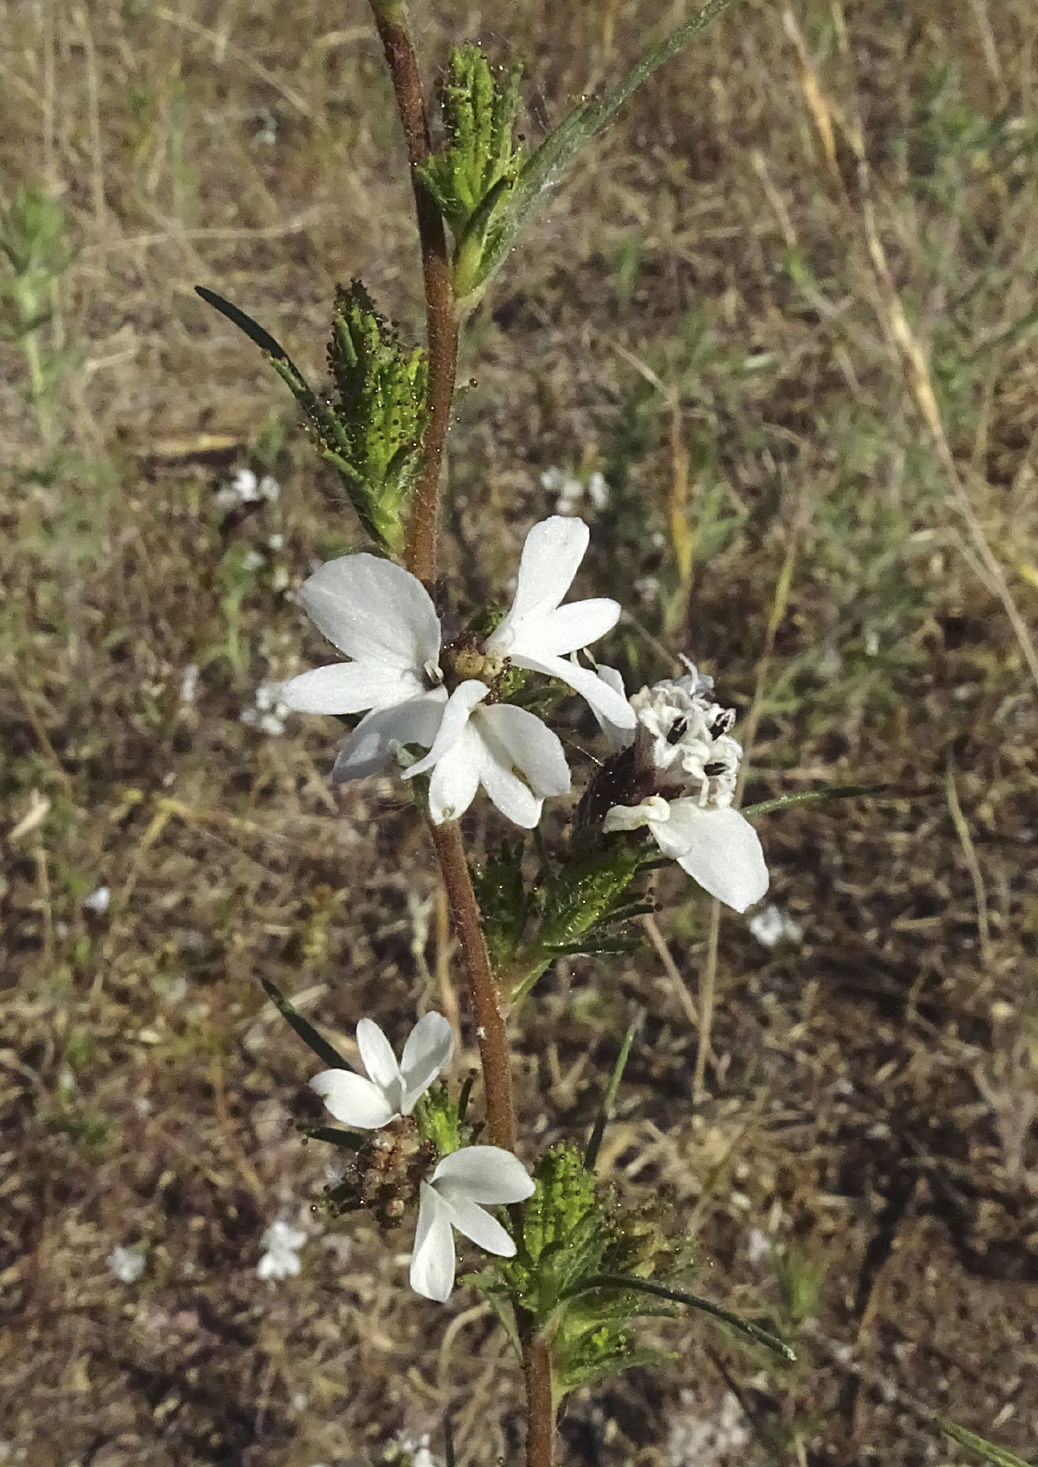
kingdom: Plantae
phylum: Tracheophyta
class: Magnoliopsida
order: Asterales
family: Asteraceae
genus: Calycadenia
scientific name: Calycadenia multiglandulosa
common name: Sticky calycadenia
